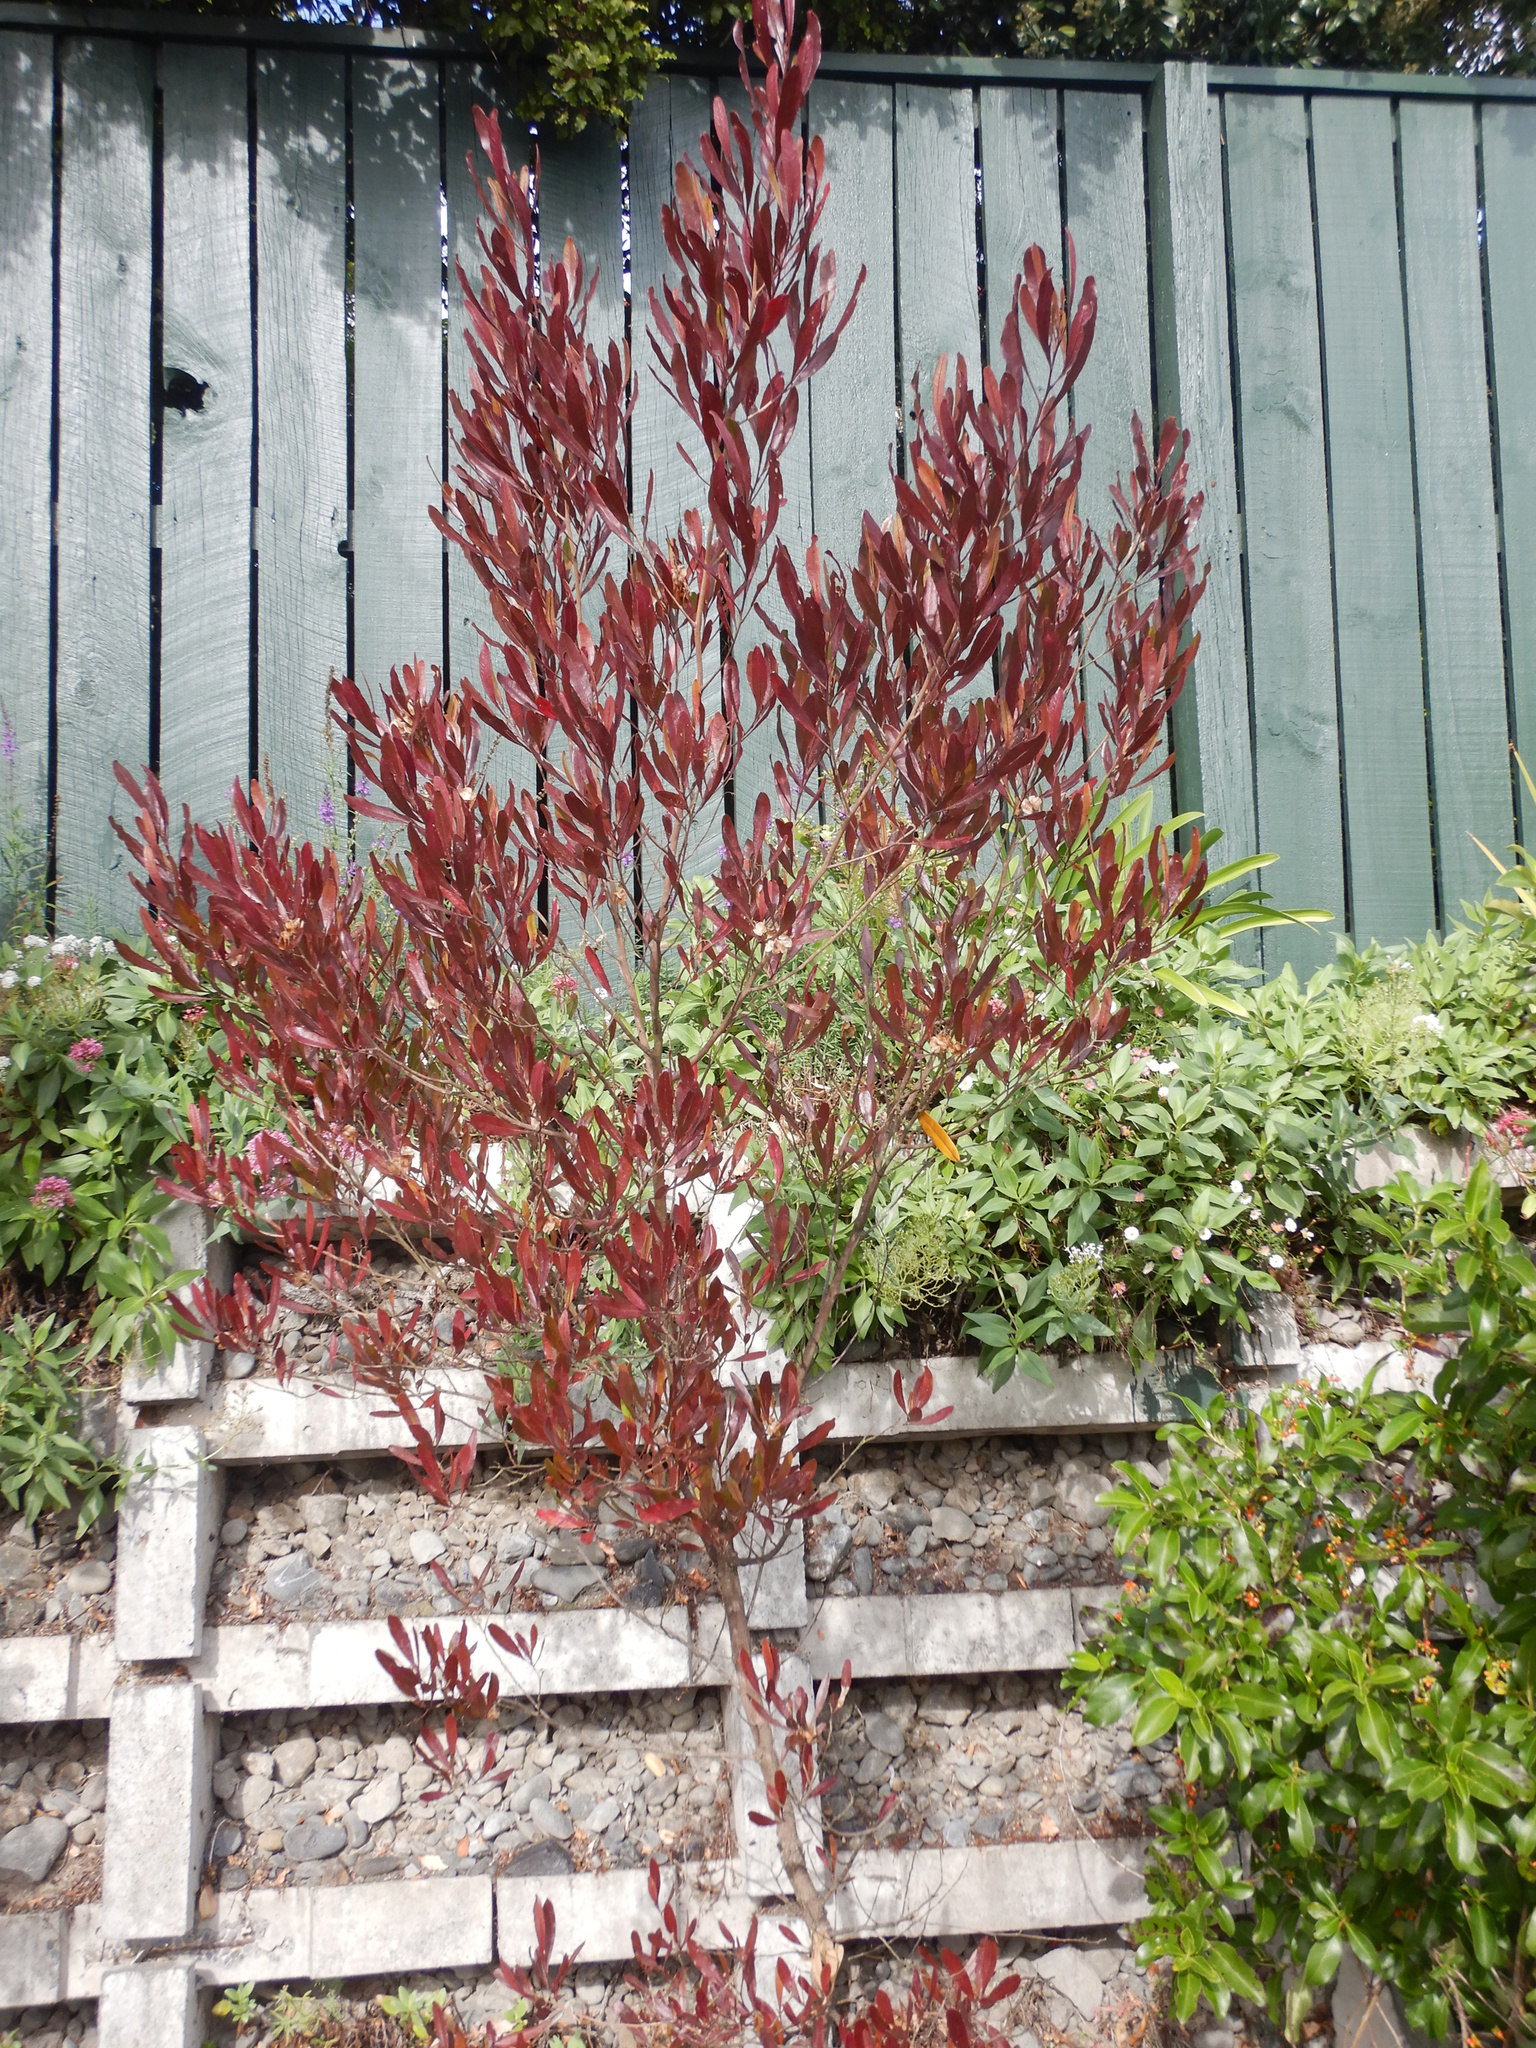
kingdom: Plantae
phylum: Tracheophyta
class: Magnoliopsida
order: Sapindales
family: Sapindaceae
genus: Dodonaea
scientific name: Dodonaea viscosa
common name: Hopbush
